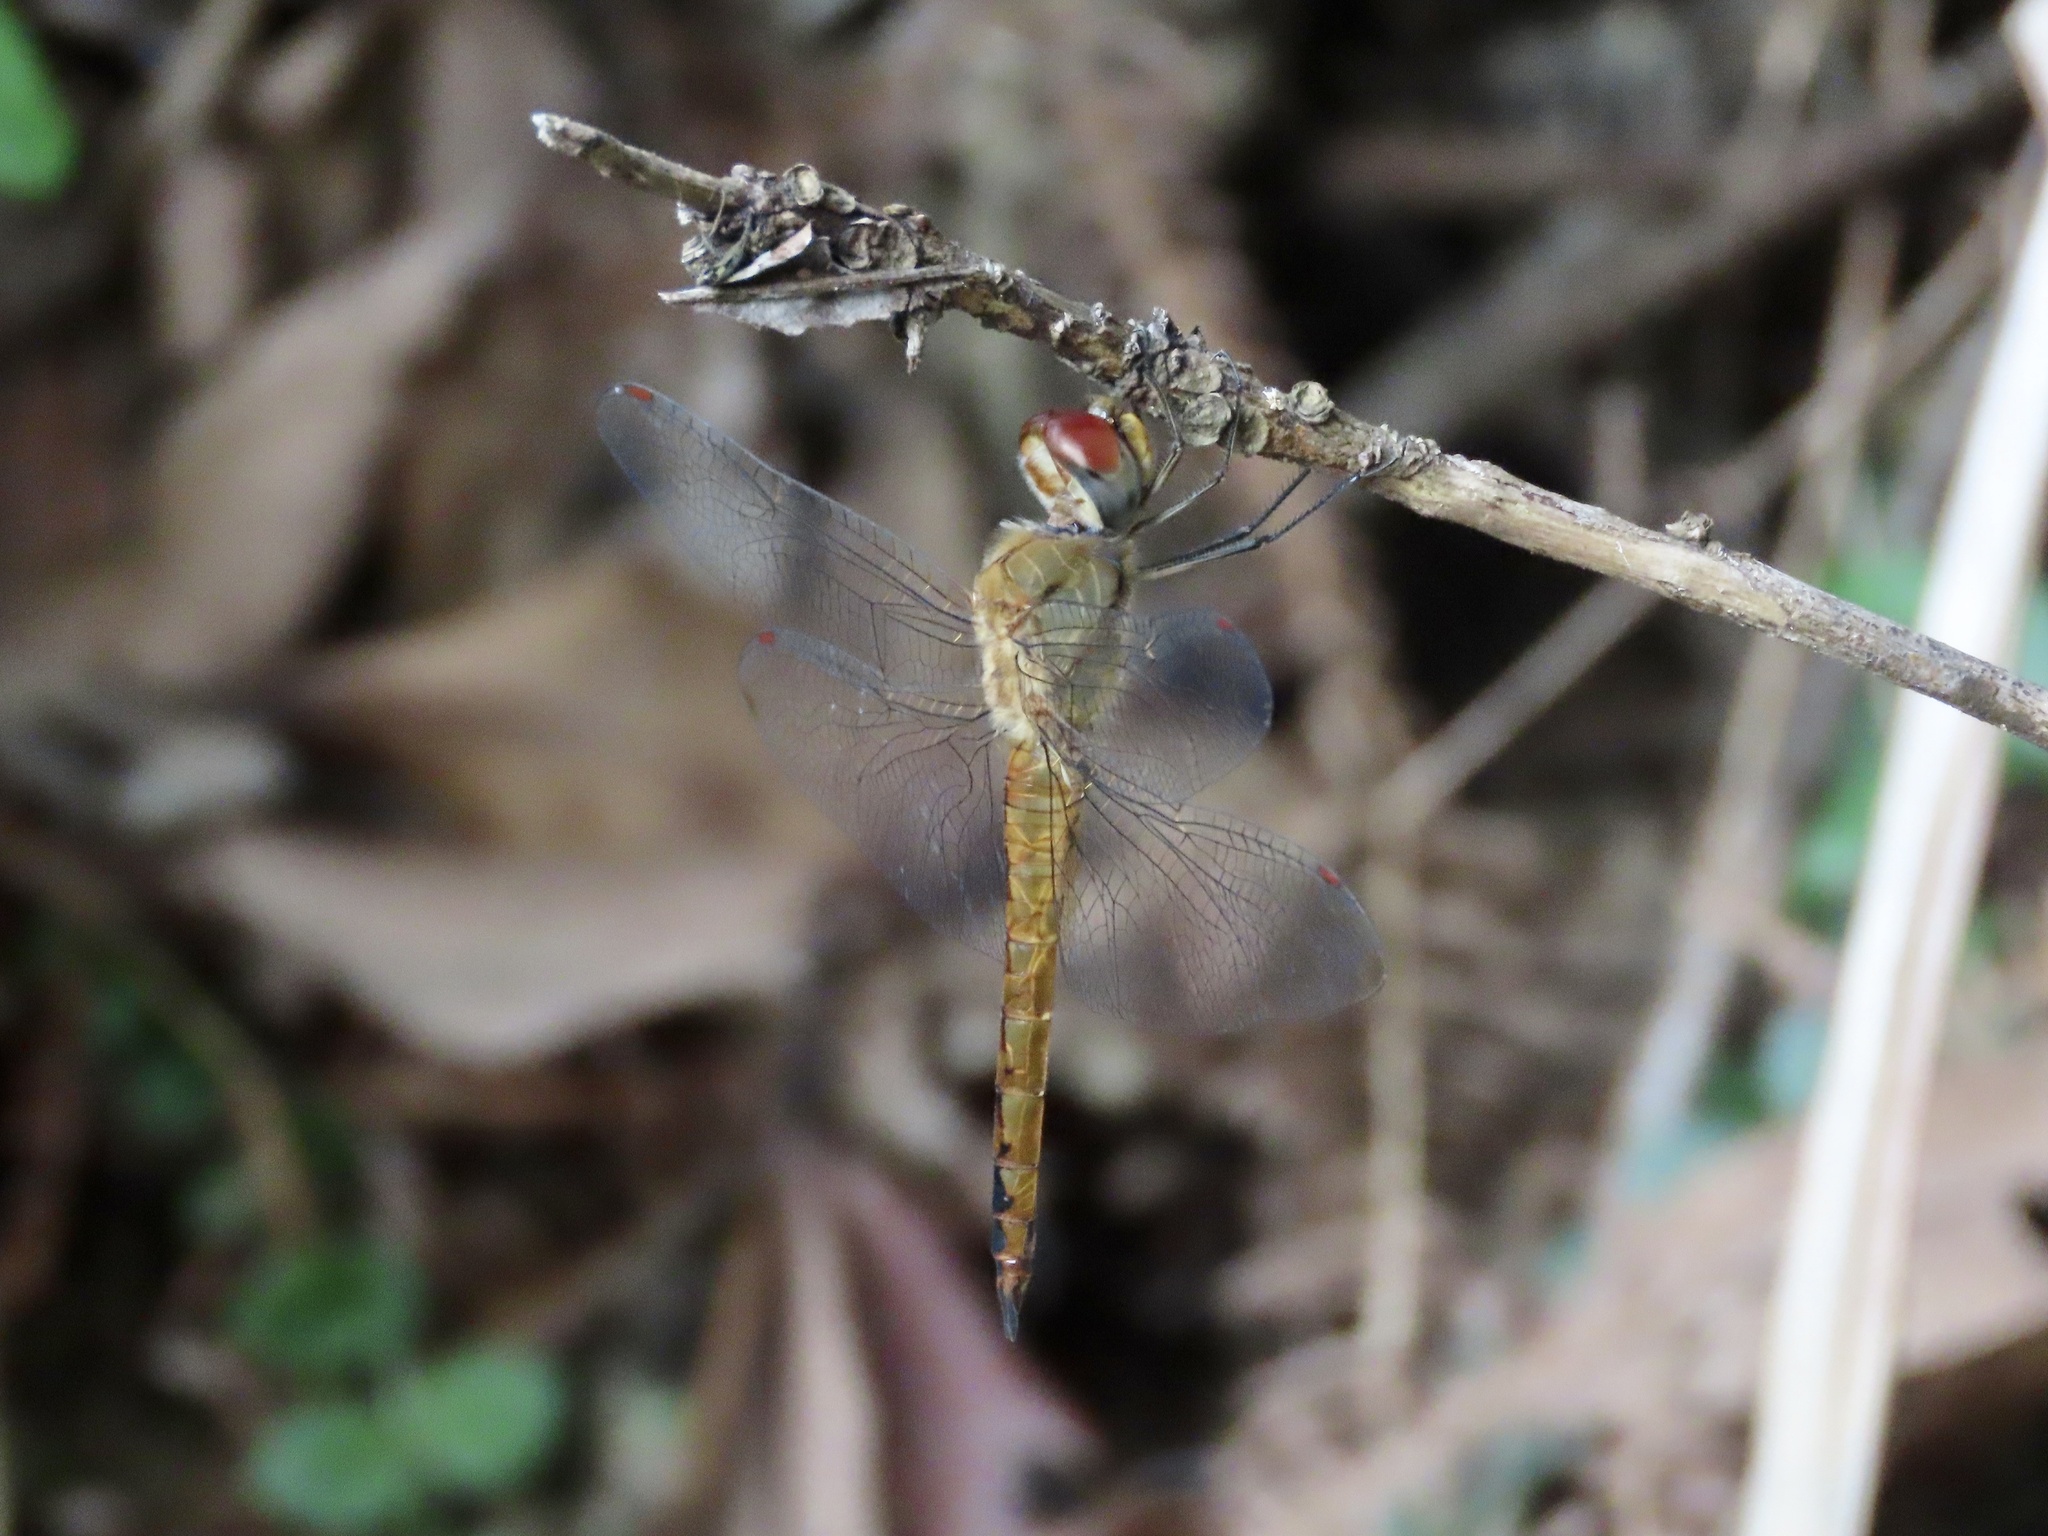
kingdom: Animalia
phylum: Arthropoda
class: Insecta
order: Odonata
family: Libellulidae
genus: Pantala
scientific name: Pantala flavescens
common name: Wandering glider
